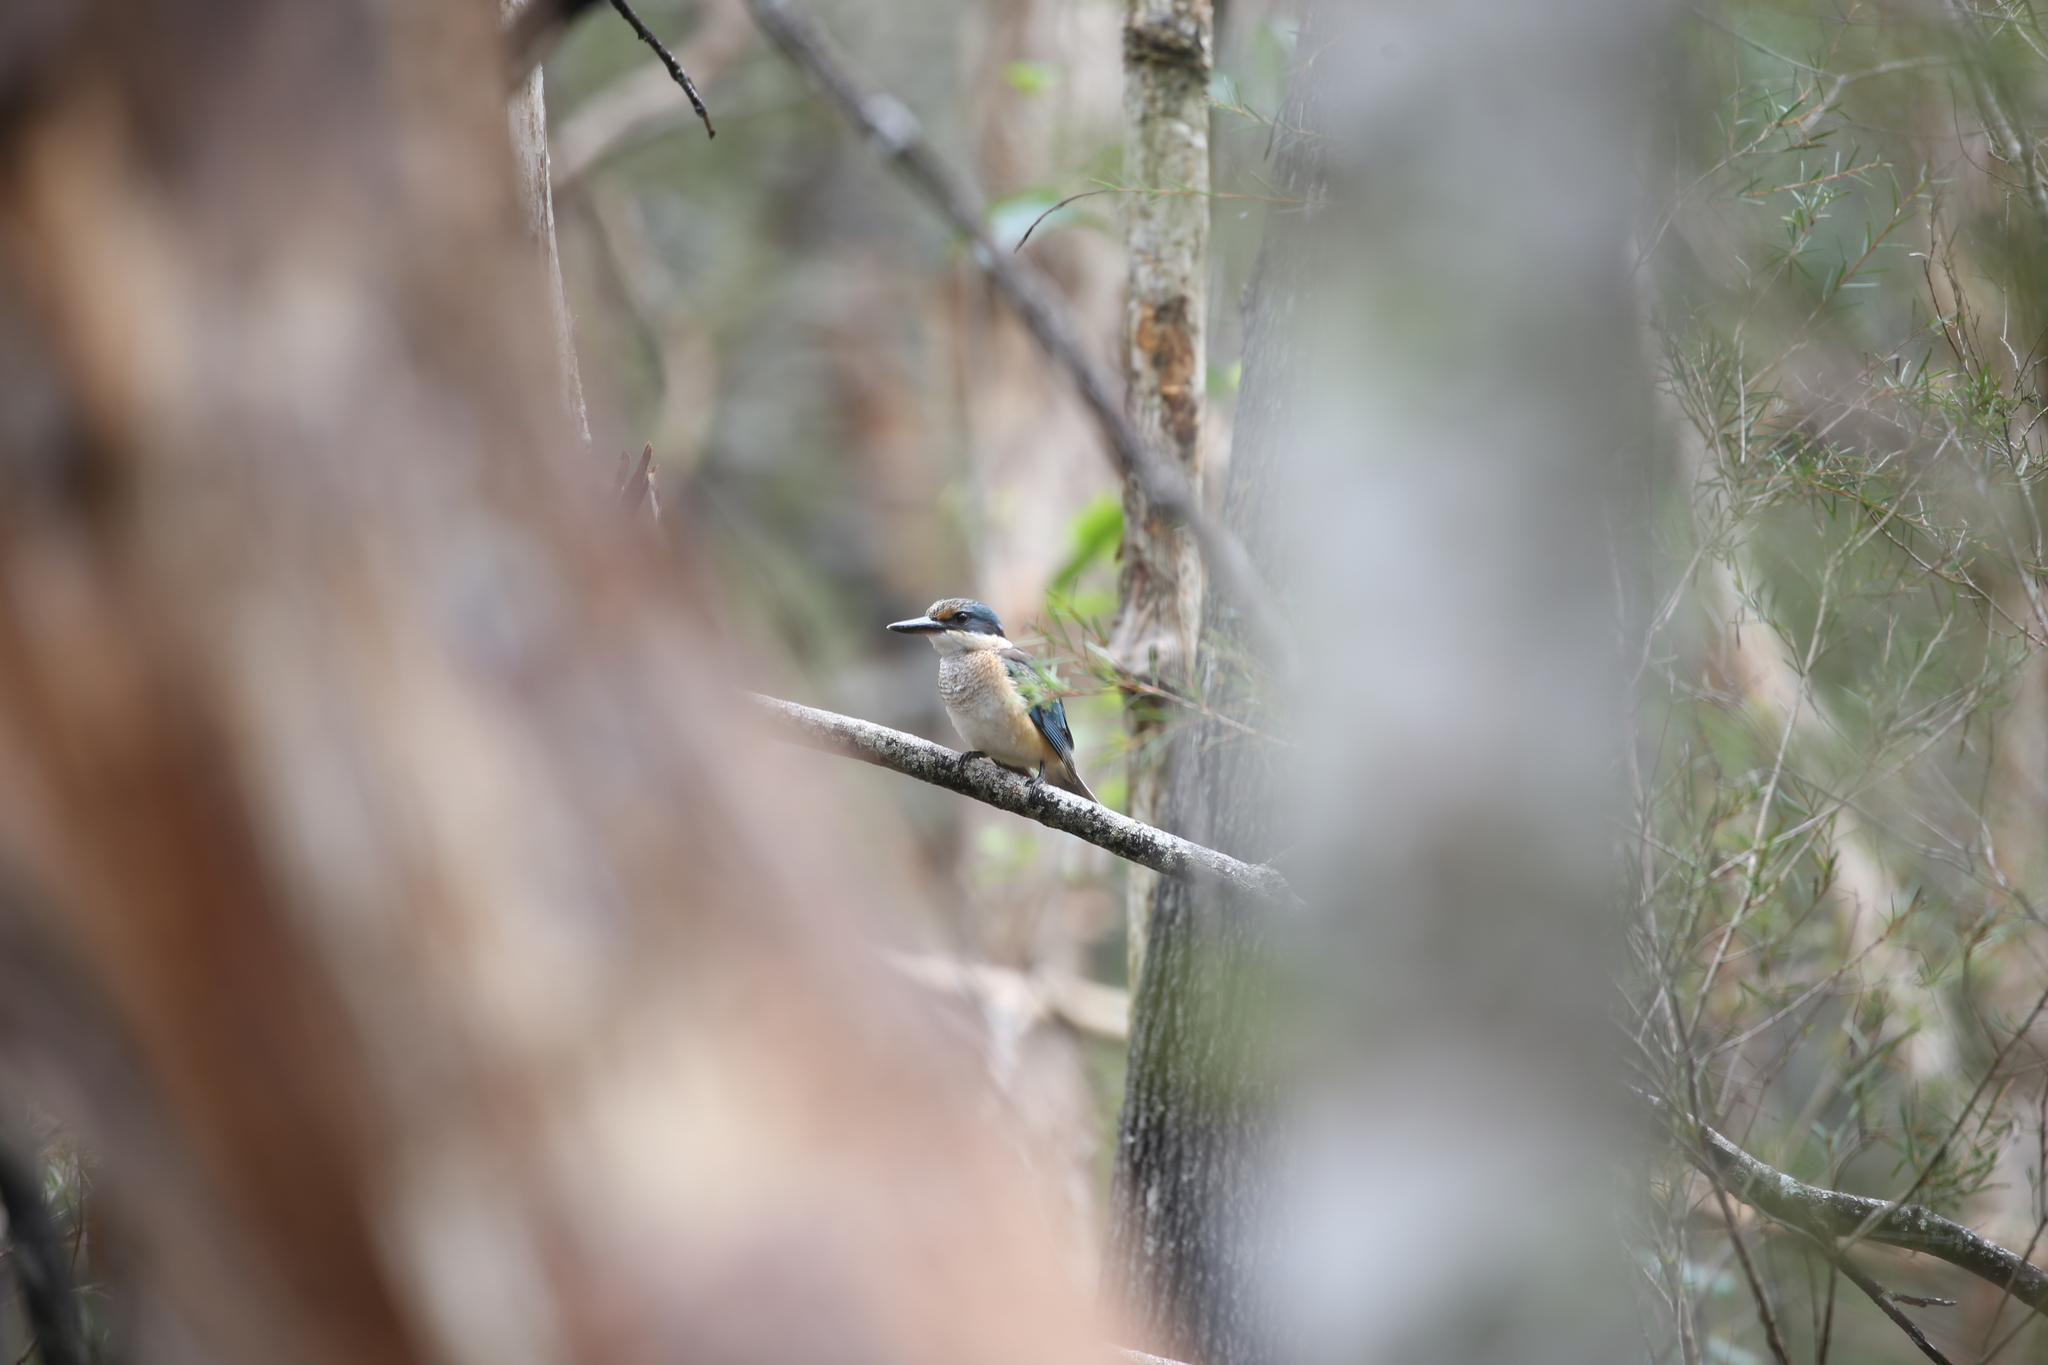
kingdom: Animalia
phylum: Chordata
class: Aves
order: Coraciiformes
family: Alcedinidae
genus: Todiramphus
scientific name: Todiramphus sanctus
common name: Sacred kingfisher
